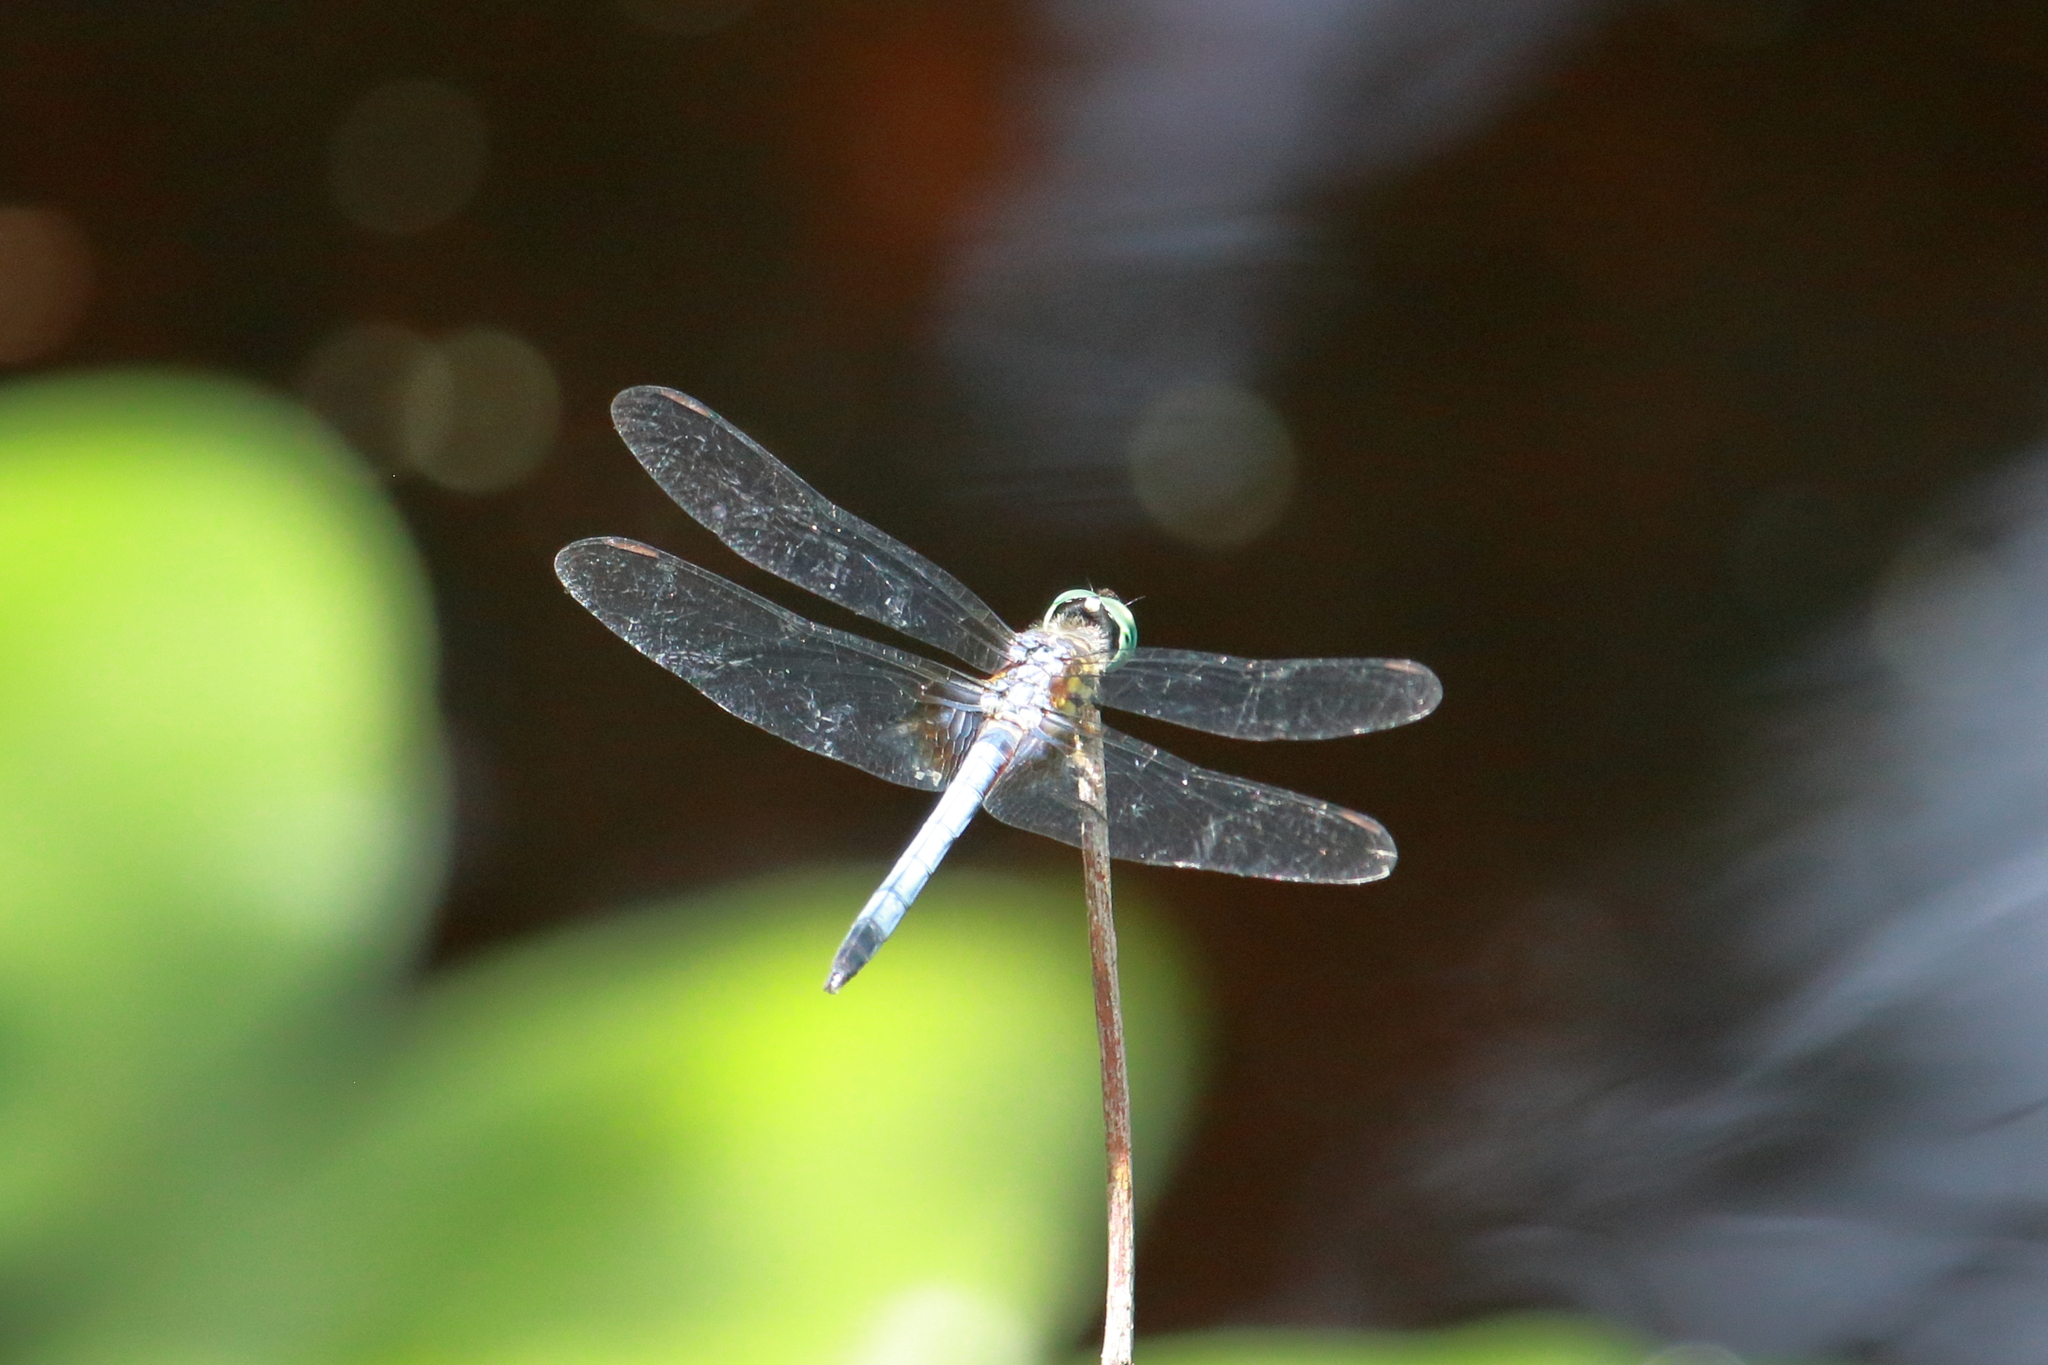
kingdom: Animalia
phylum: Arthropoda
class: Insecta
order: Odonata
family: Libellulidae
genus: Pachydiplax
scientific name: Pachydiplax longipennis
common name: Blue dasher
